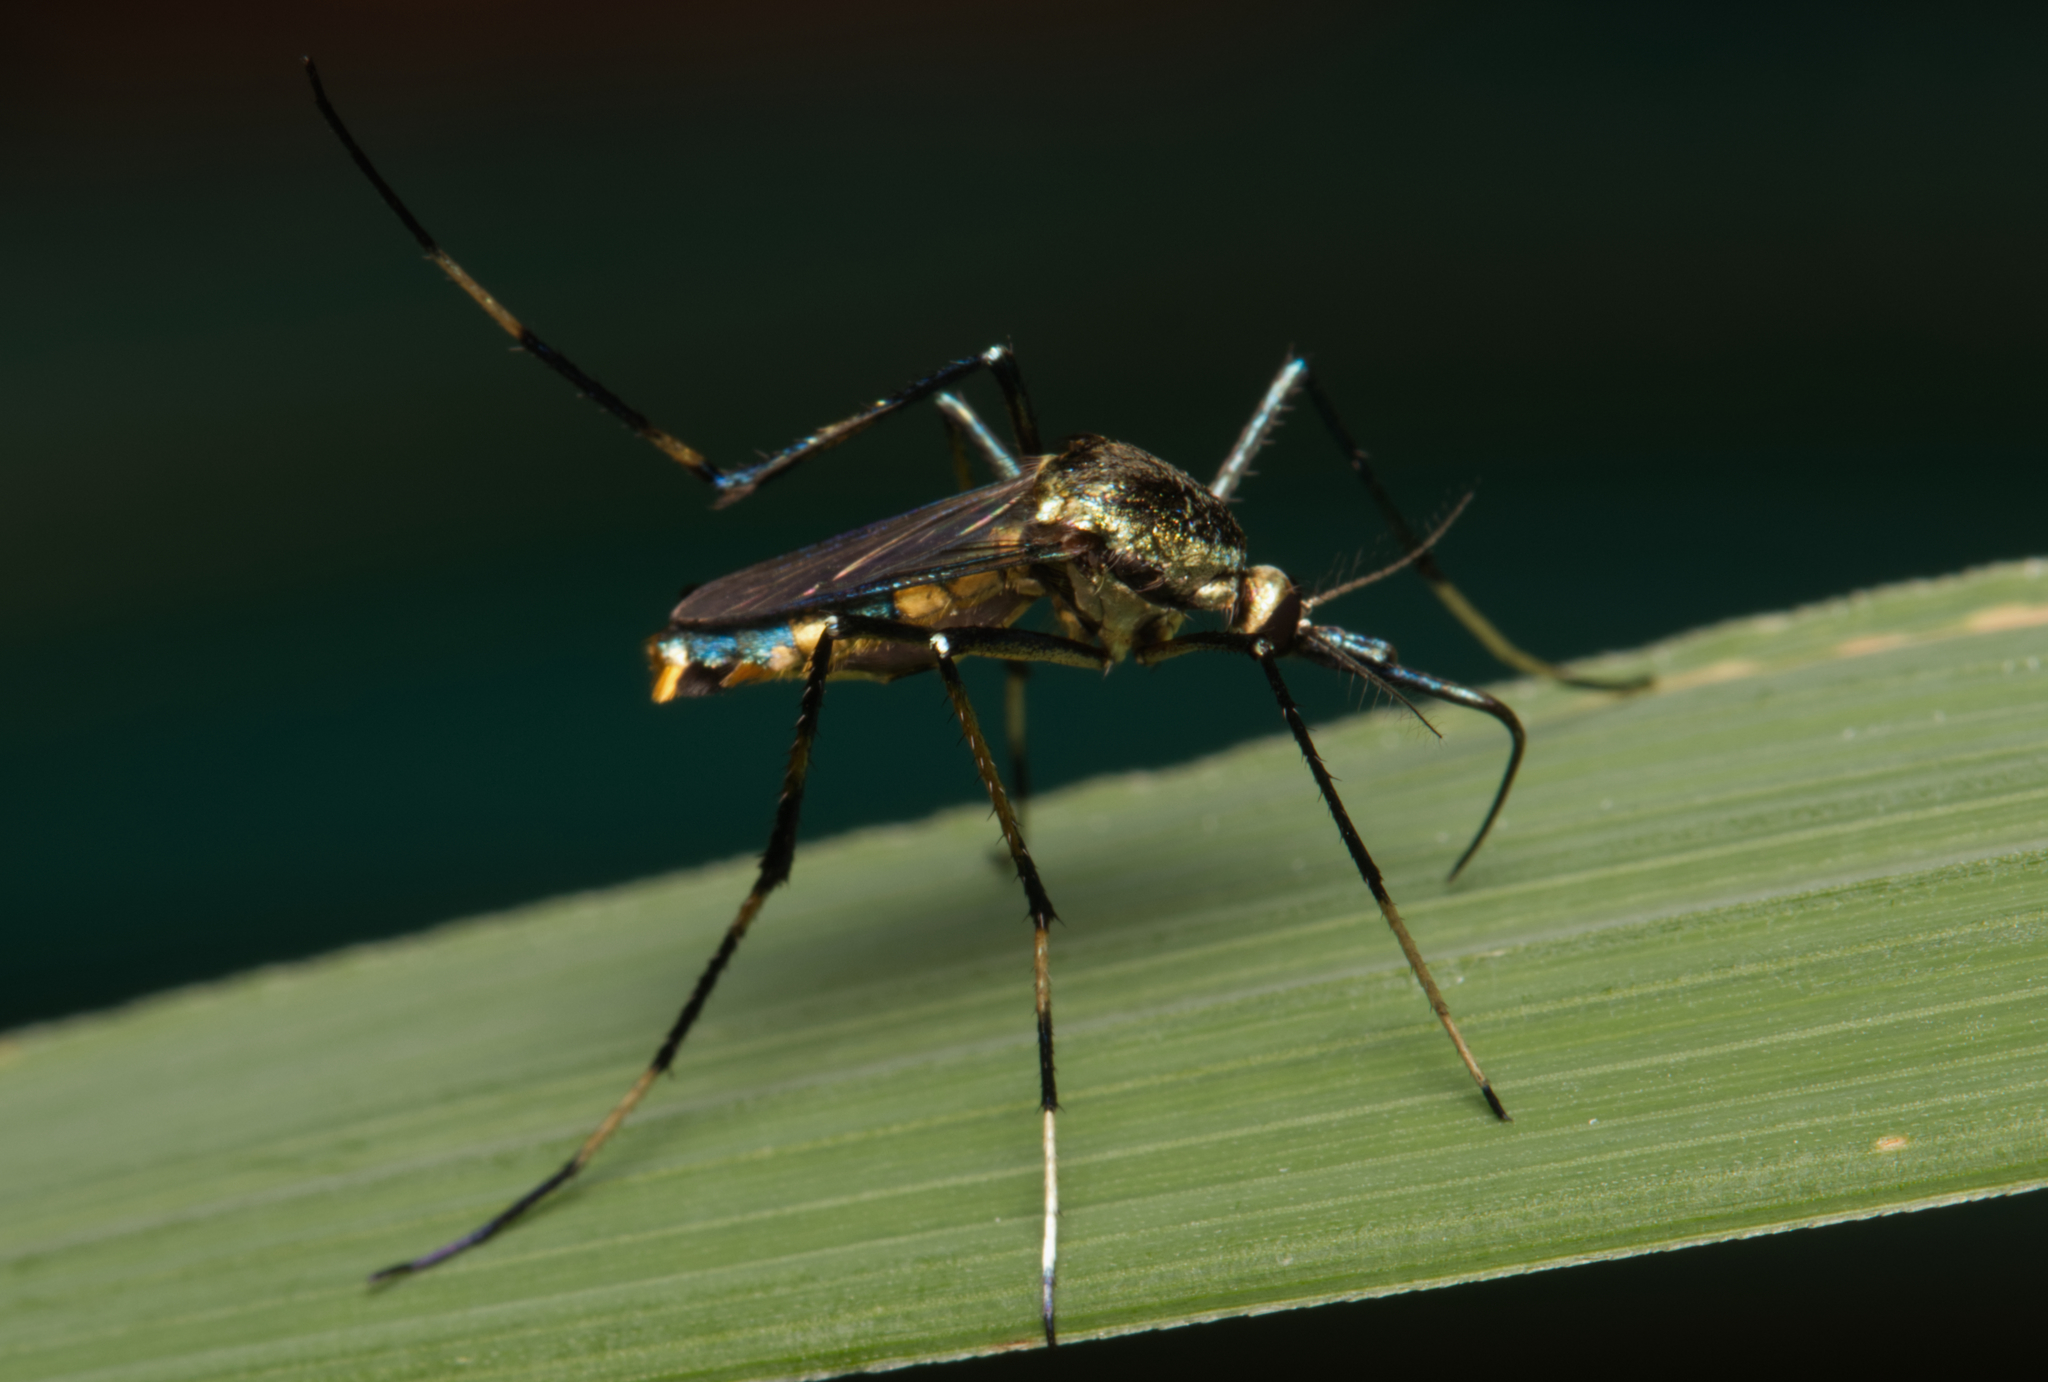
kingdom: Animalia
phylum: Arthropoda
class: Insecta
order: Diptera
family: Culicidae
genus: Toxorhynchites
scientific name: Toxorhynchites speciosus
